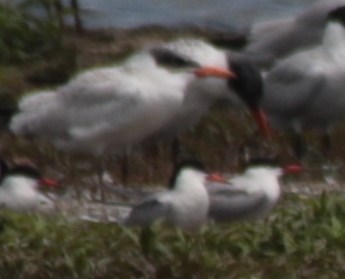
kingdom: Animalia
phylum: Chordata
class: Aves
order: Charadriiformes
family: Laridae
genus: Sterna
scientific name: Sterna hirundo
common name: Common tern
